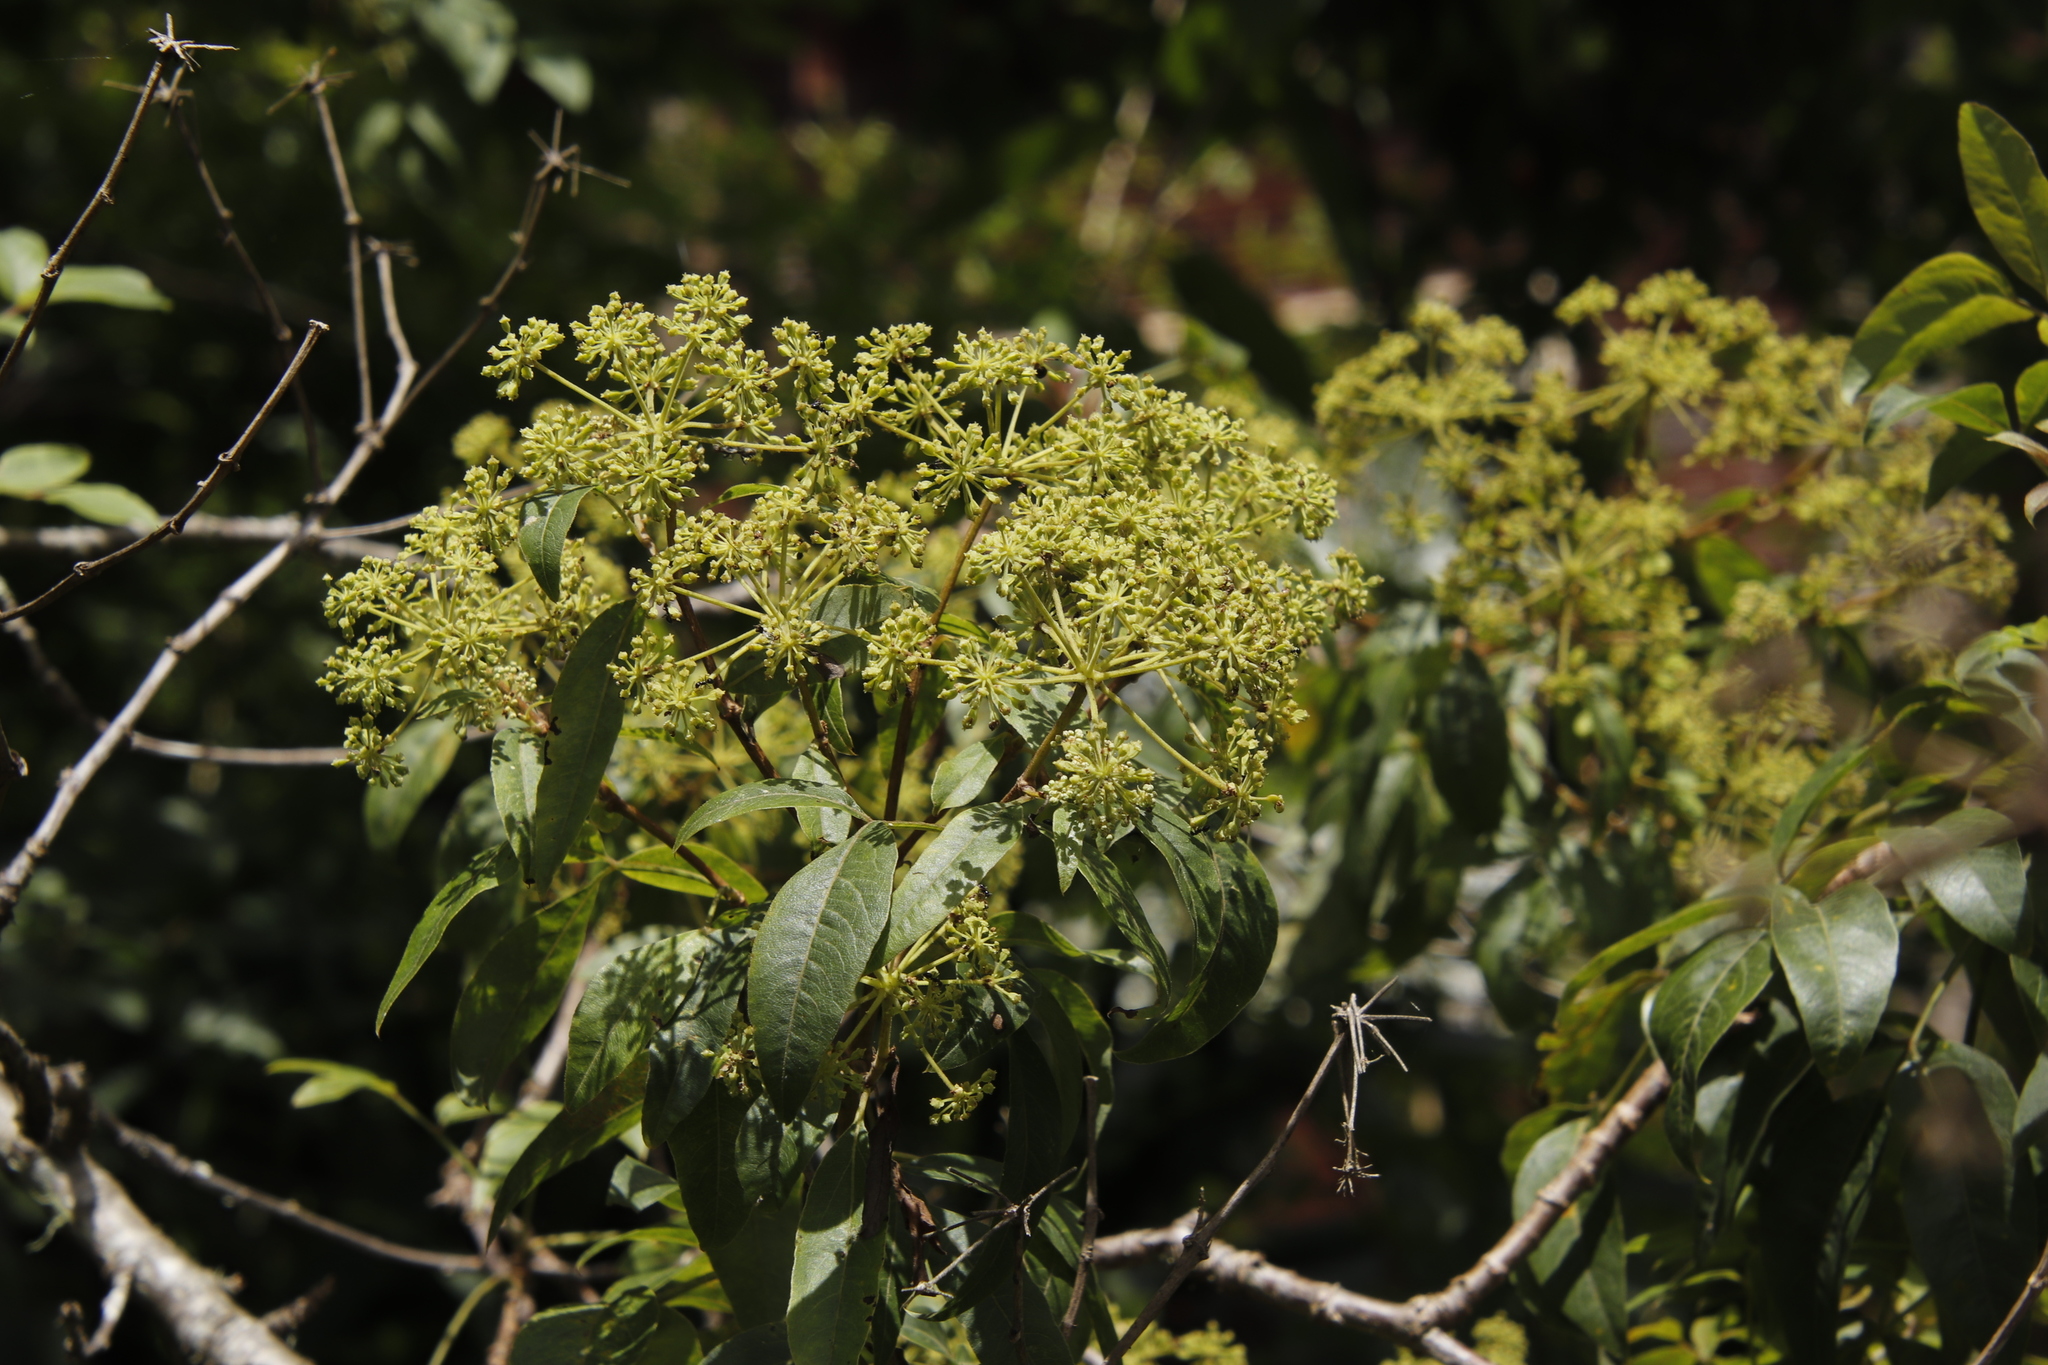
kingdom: Plantae
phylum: Tracheophyta
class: Magnoliopsida
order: Apiales
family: Apiaceae
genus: Heteromorpha
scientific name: Heteromorpha arborescens
